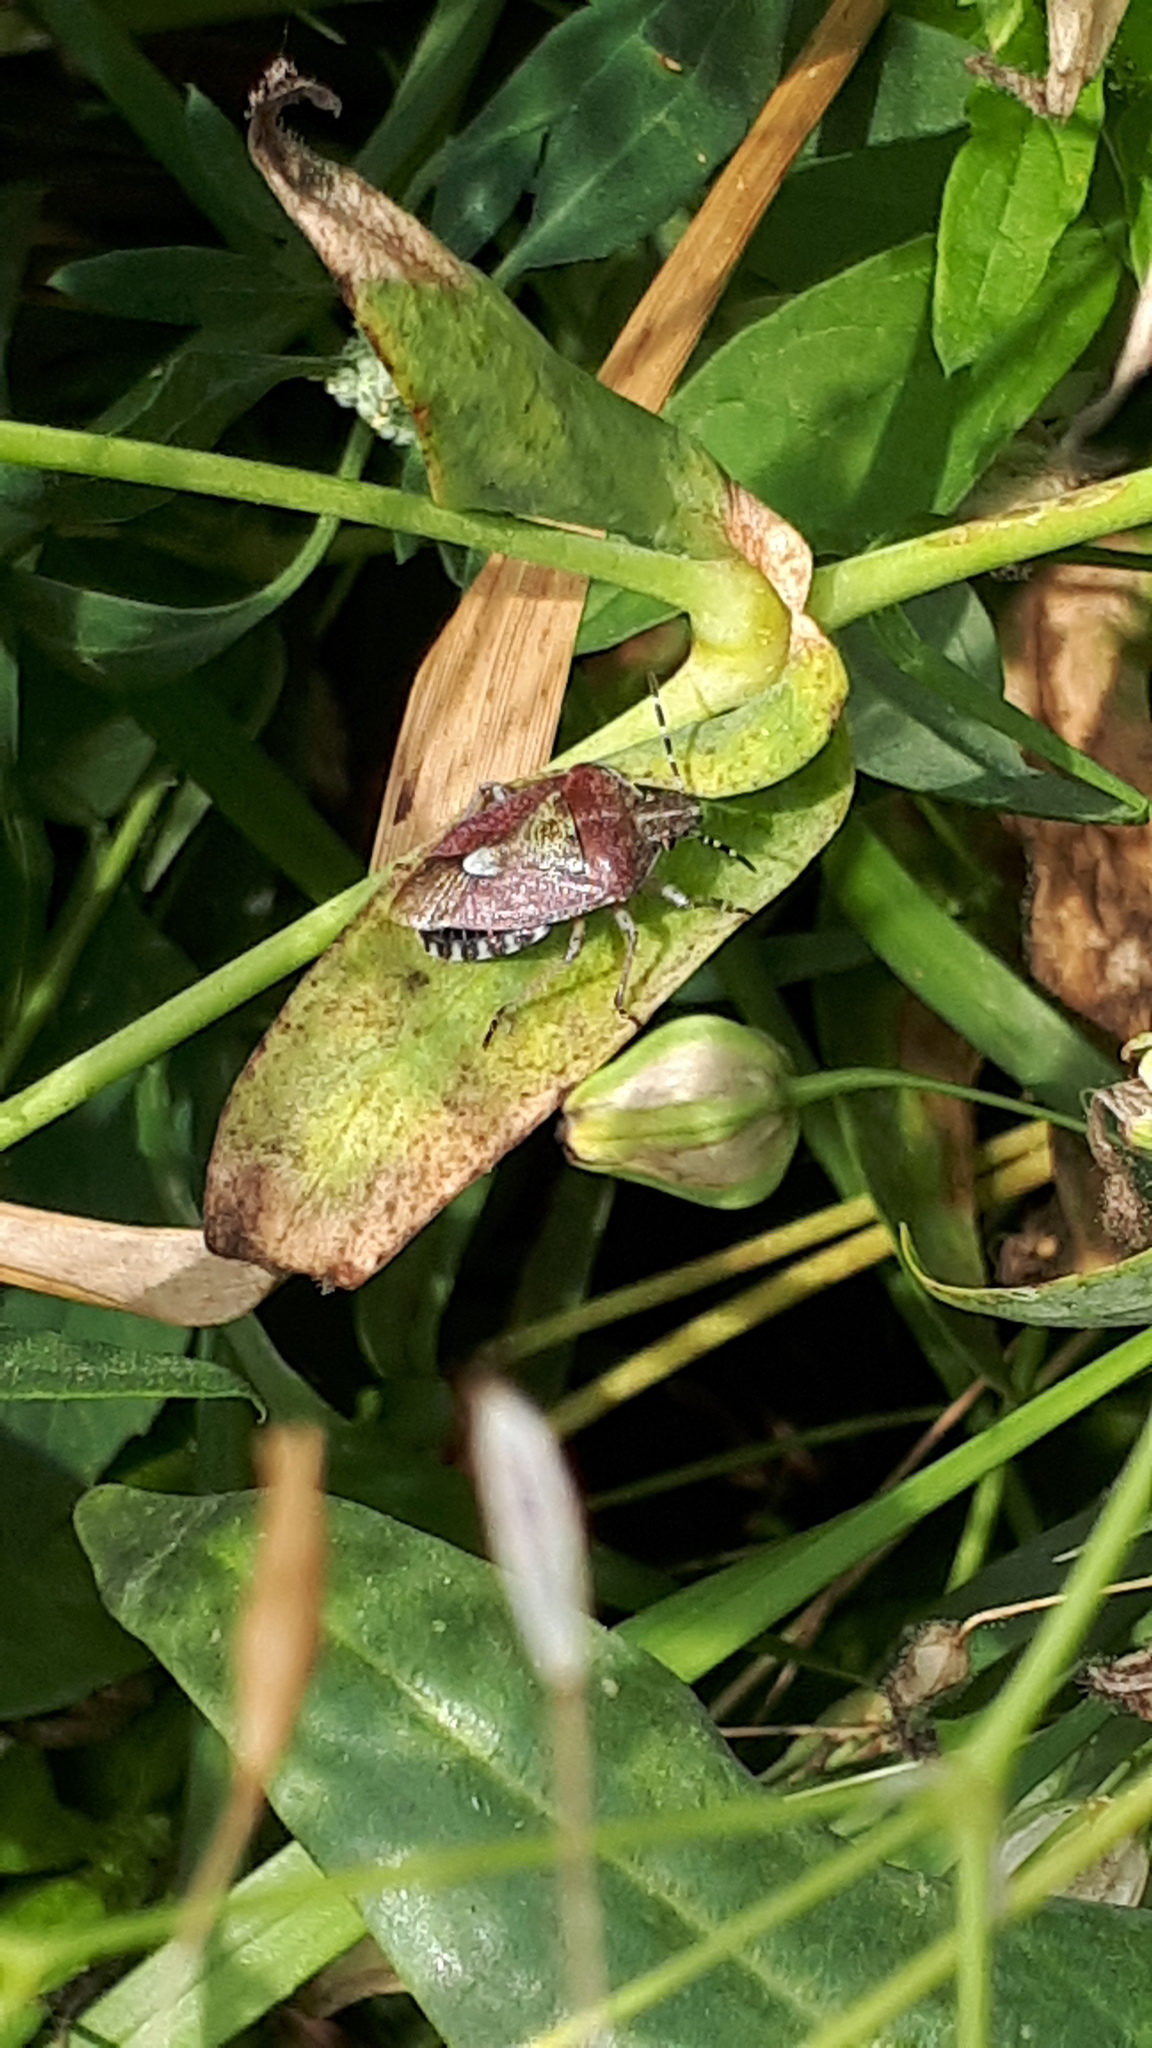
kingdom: Animalia
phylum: Arthropoda
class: Insecta
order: Hemiptera
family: Pentatomidae
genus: Dolycoris
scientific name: Dolycoris baccarum
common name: Sloe bug
